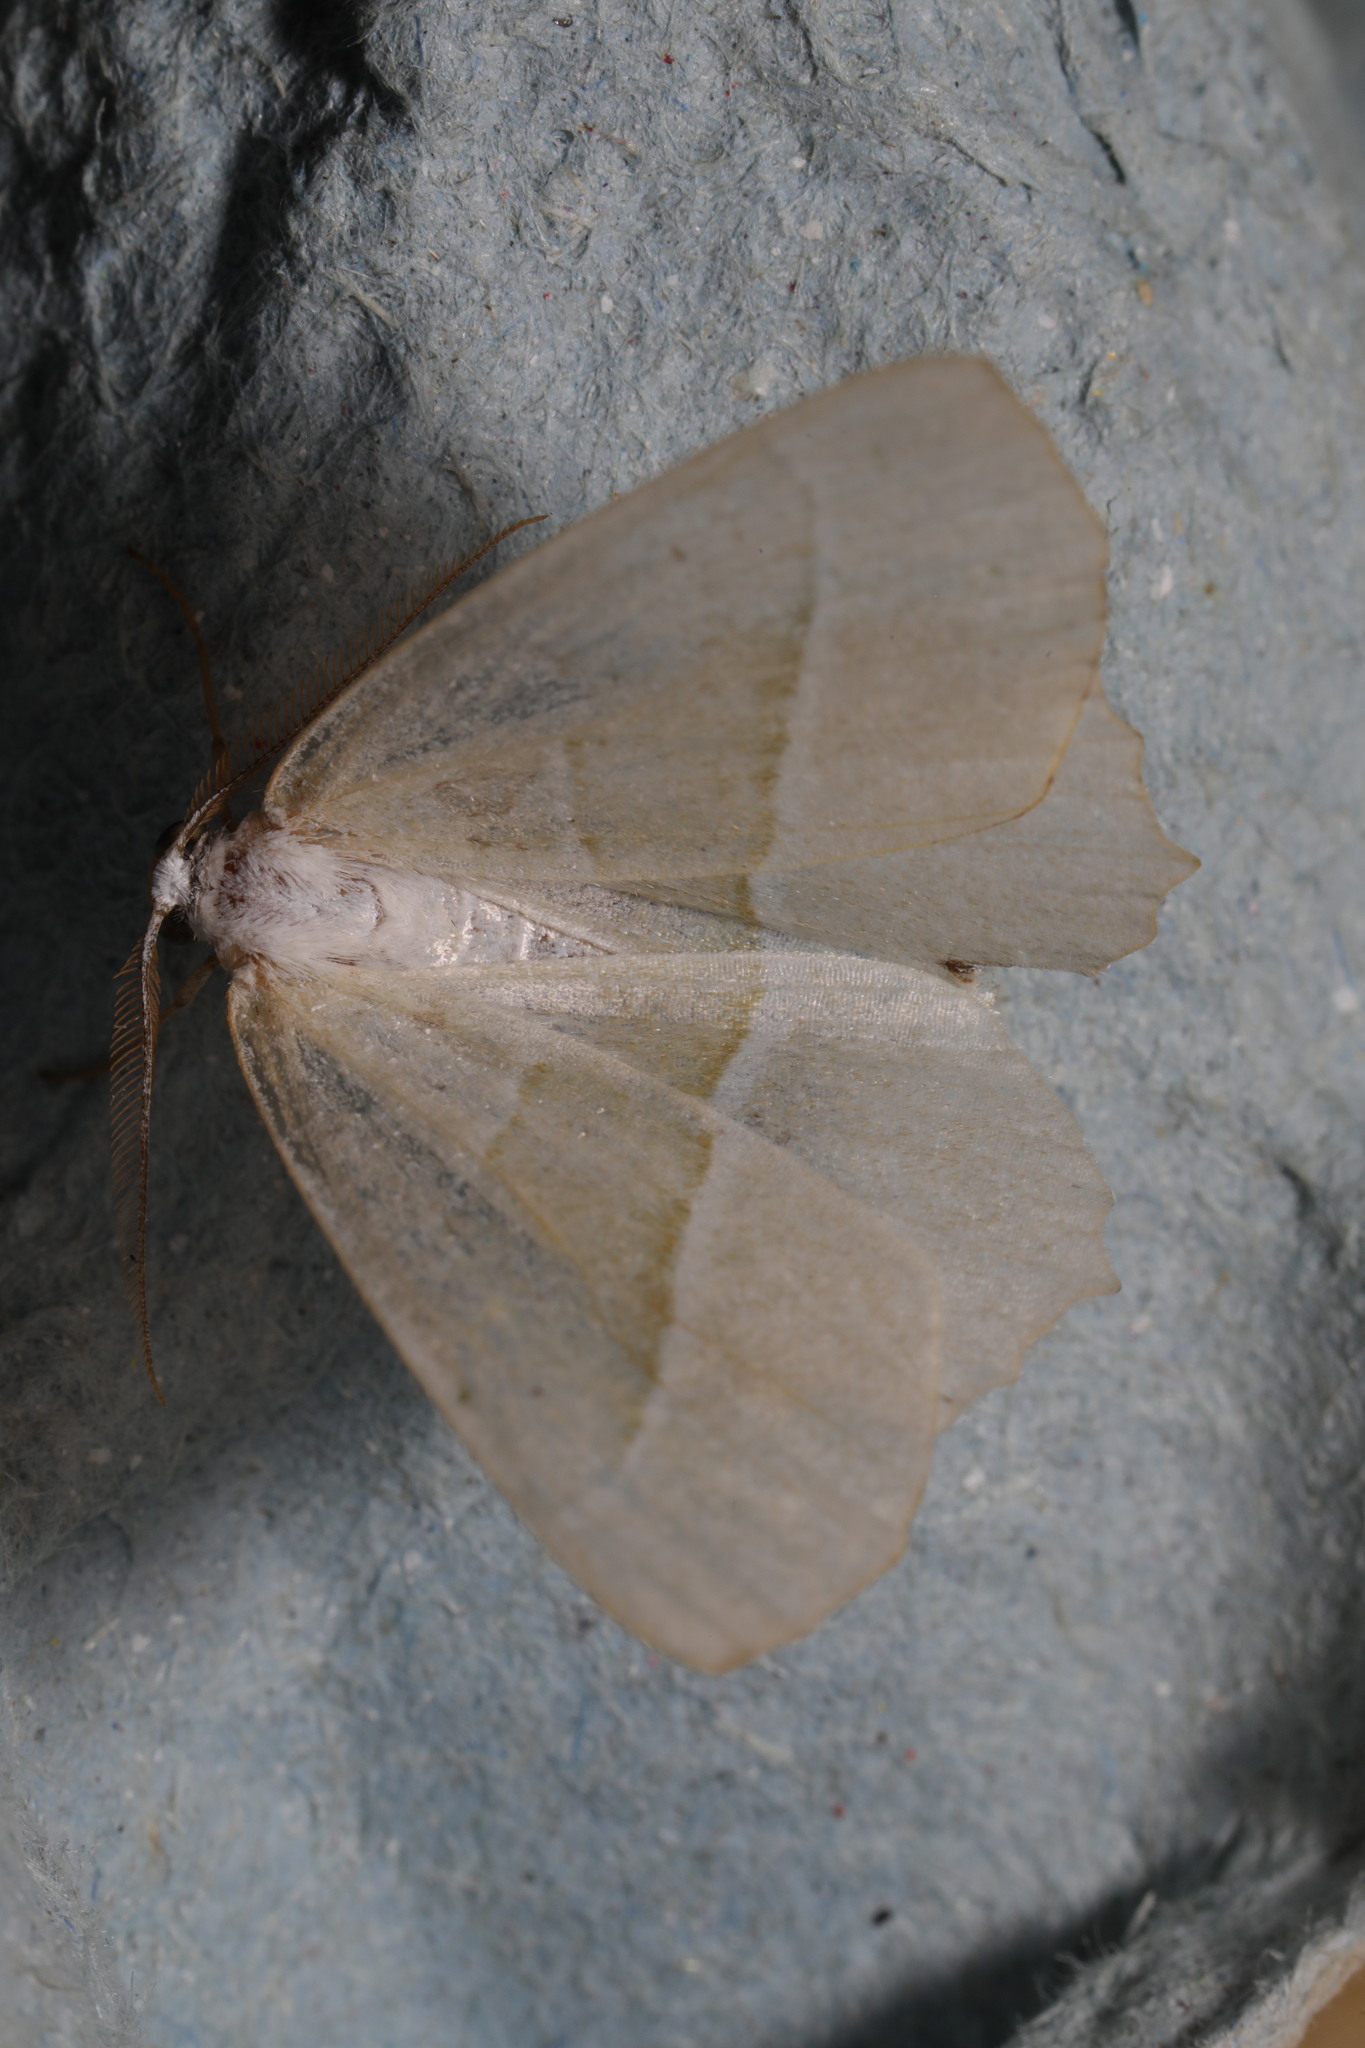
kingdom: Animalia
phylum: Arthropoda
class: Insecta
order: Lepidoptera
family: Geometridae
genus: Campaea
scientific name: Campaea margaritaria
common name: Light emerald
